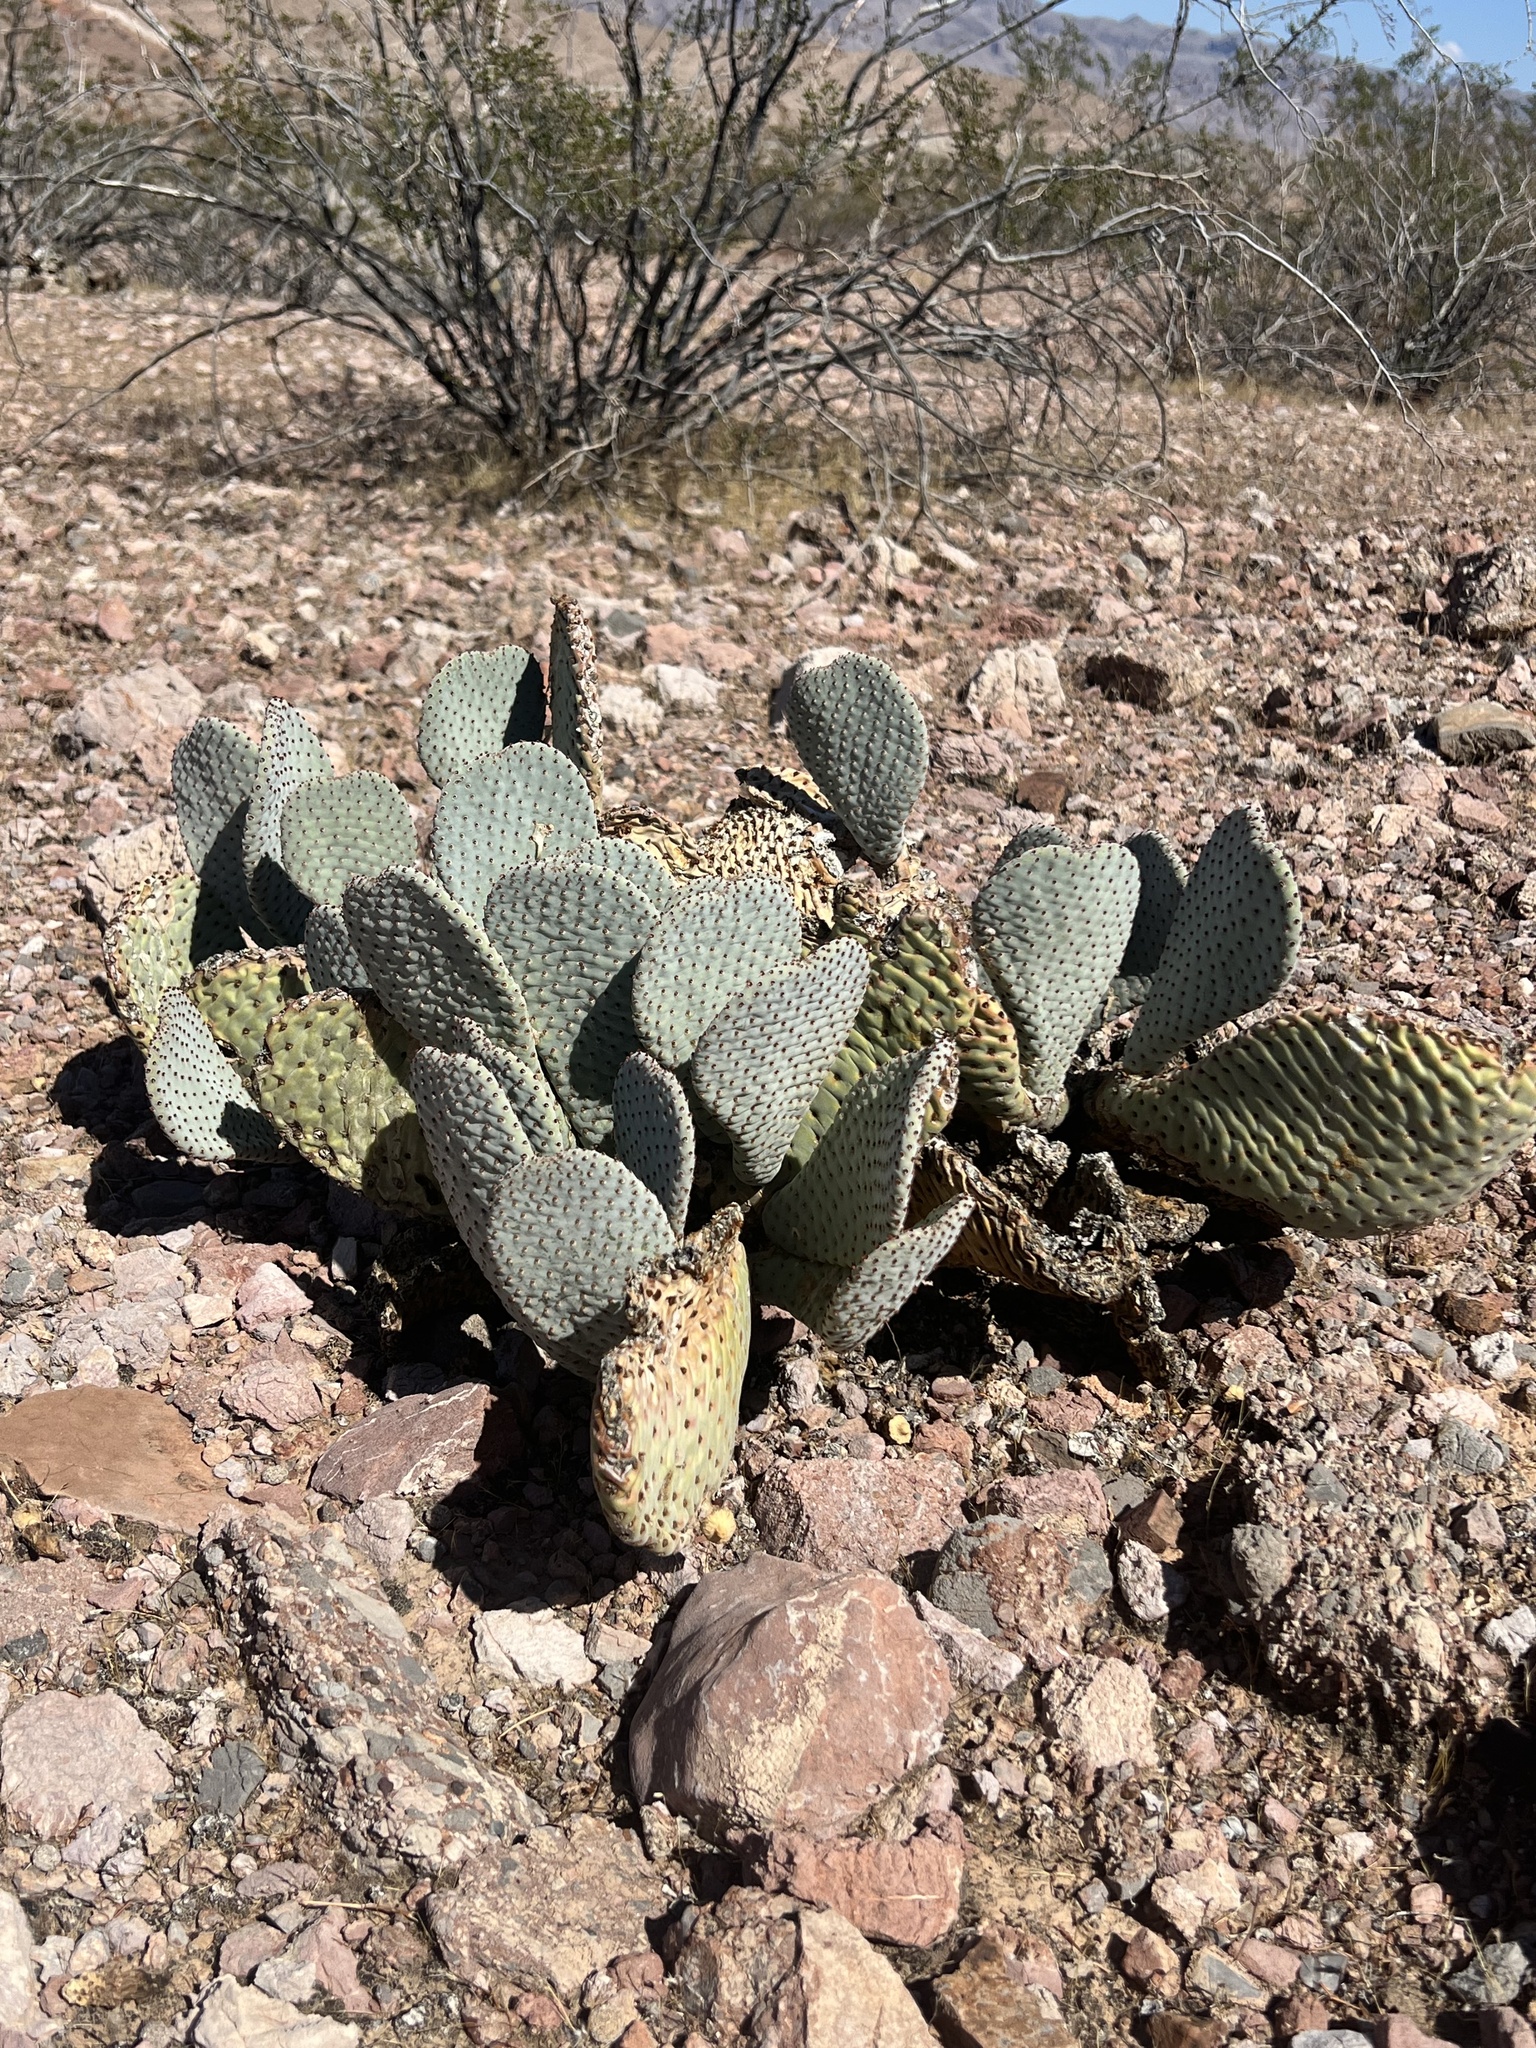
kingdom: Plantae
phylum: Tracheophyta
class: Magnoliopsida
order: Caryophyllales
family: Cactaceae
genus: Opuntia
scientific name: Opuntia basilaris
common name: Beavertail prickly-pear
